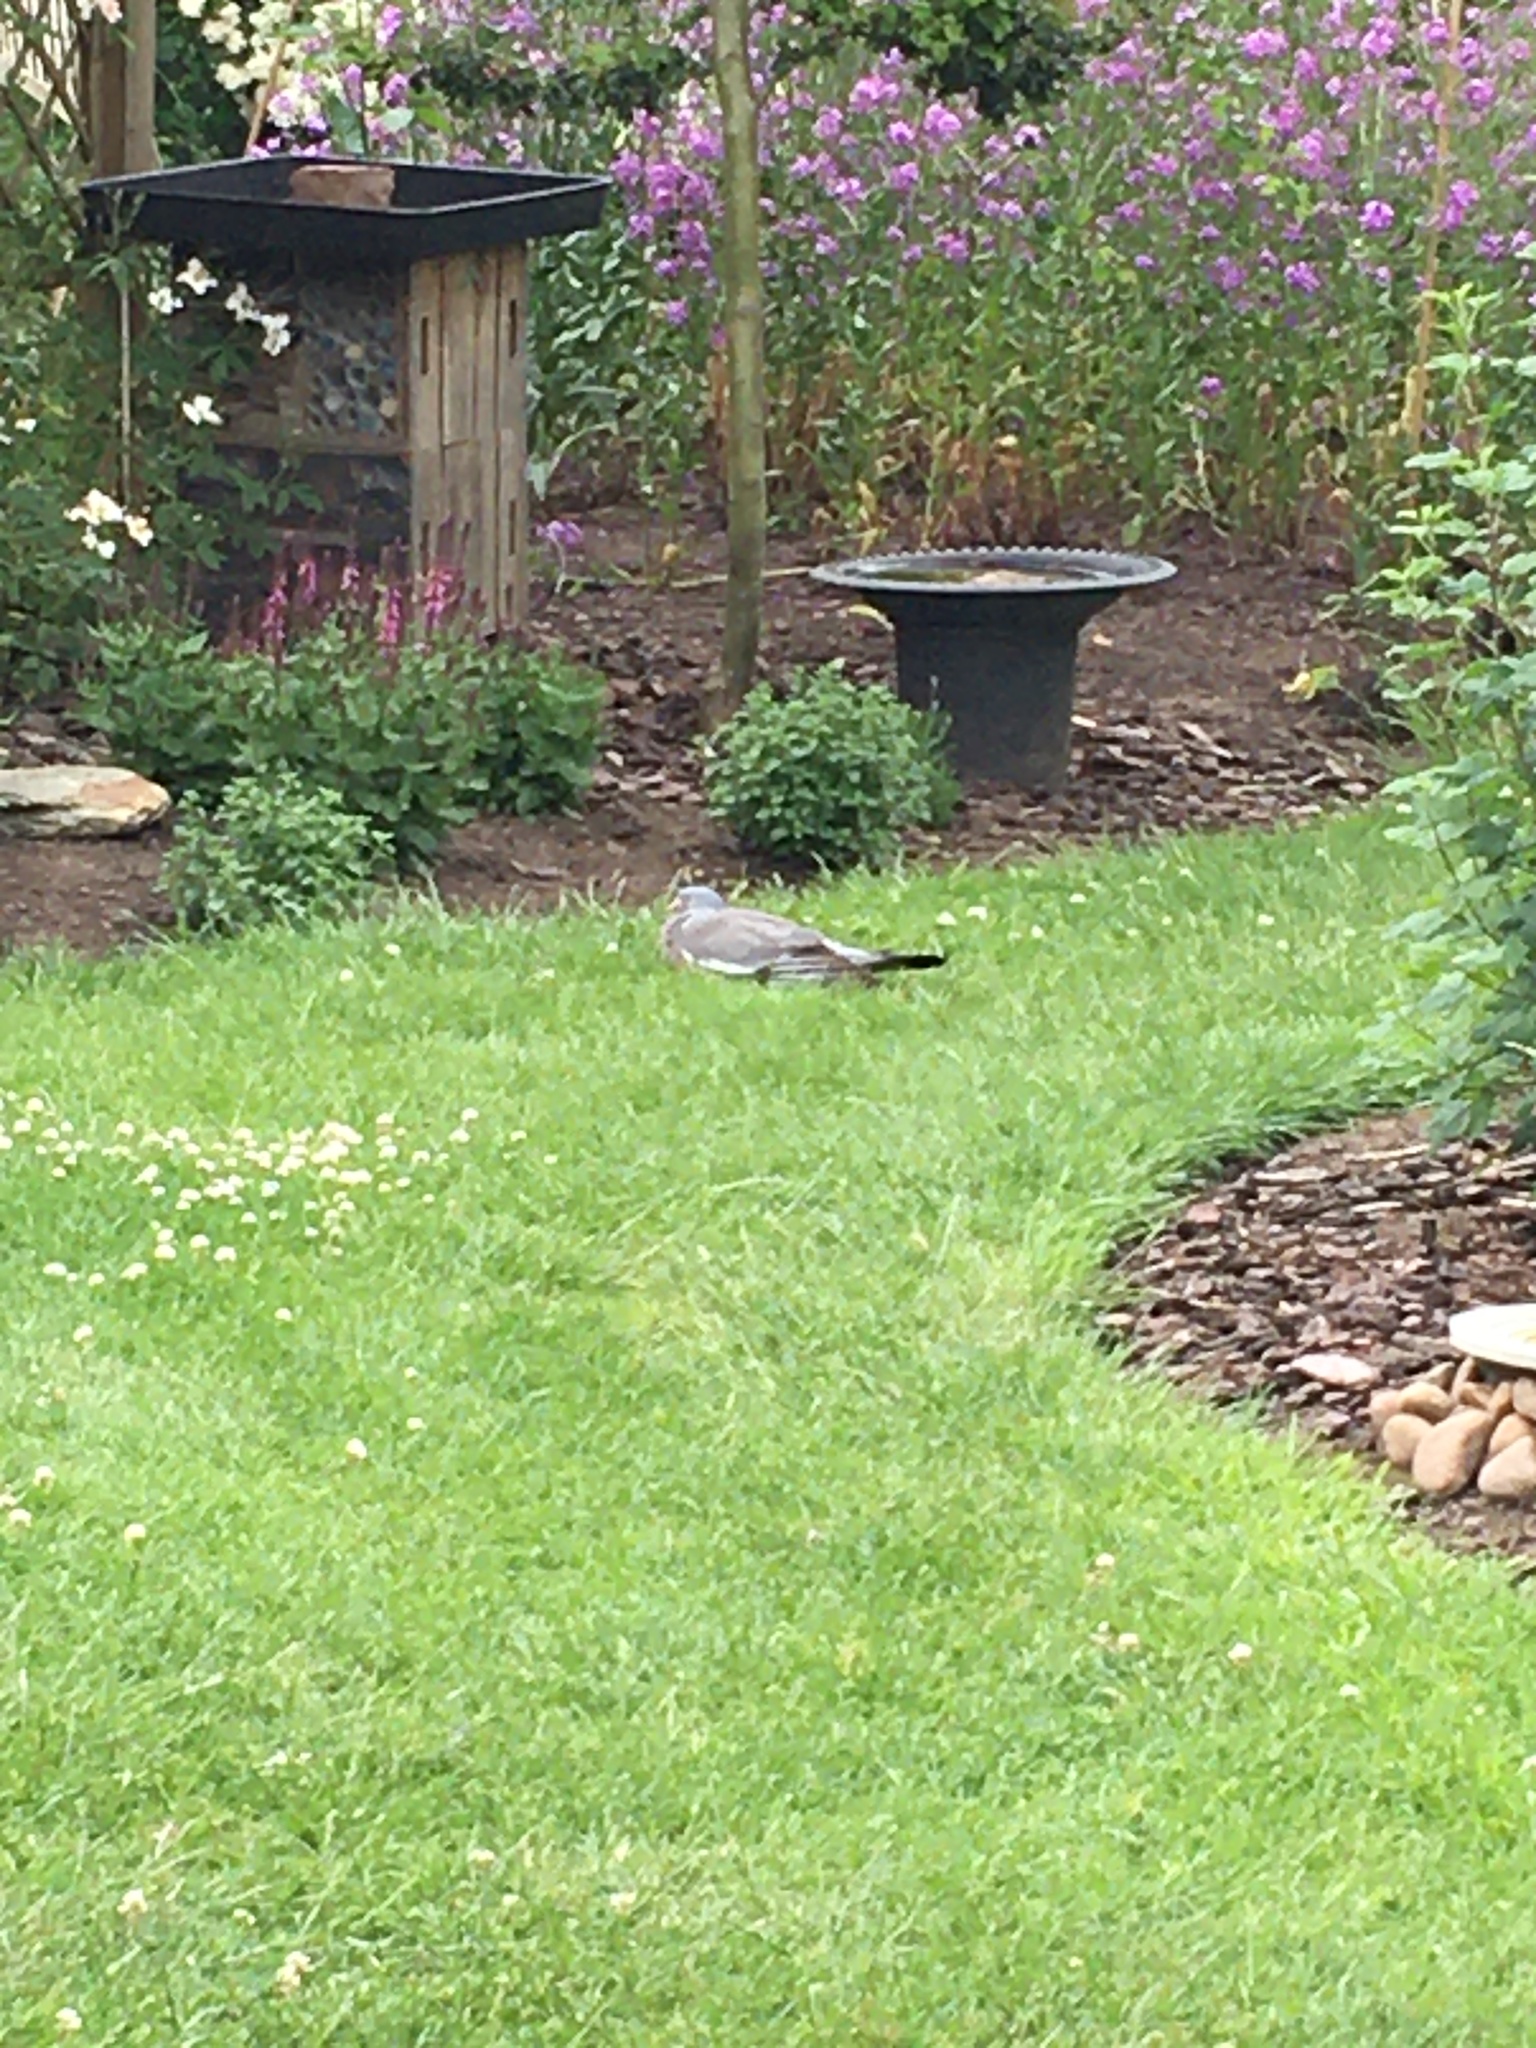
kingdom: Animalia
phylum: Chordata
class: Aves
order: Columbiformes
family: Columbidae
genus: Columba
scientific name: Columba palumbus
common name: Common wood pigeon
